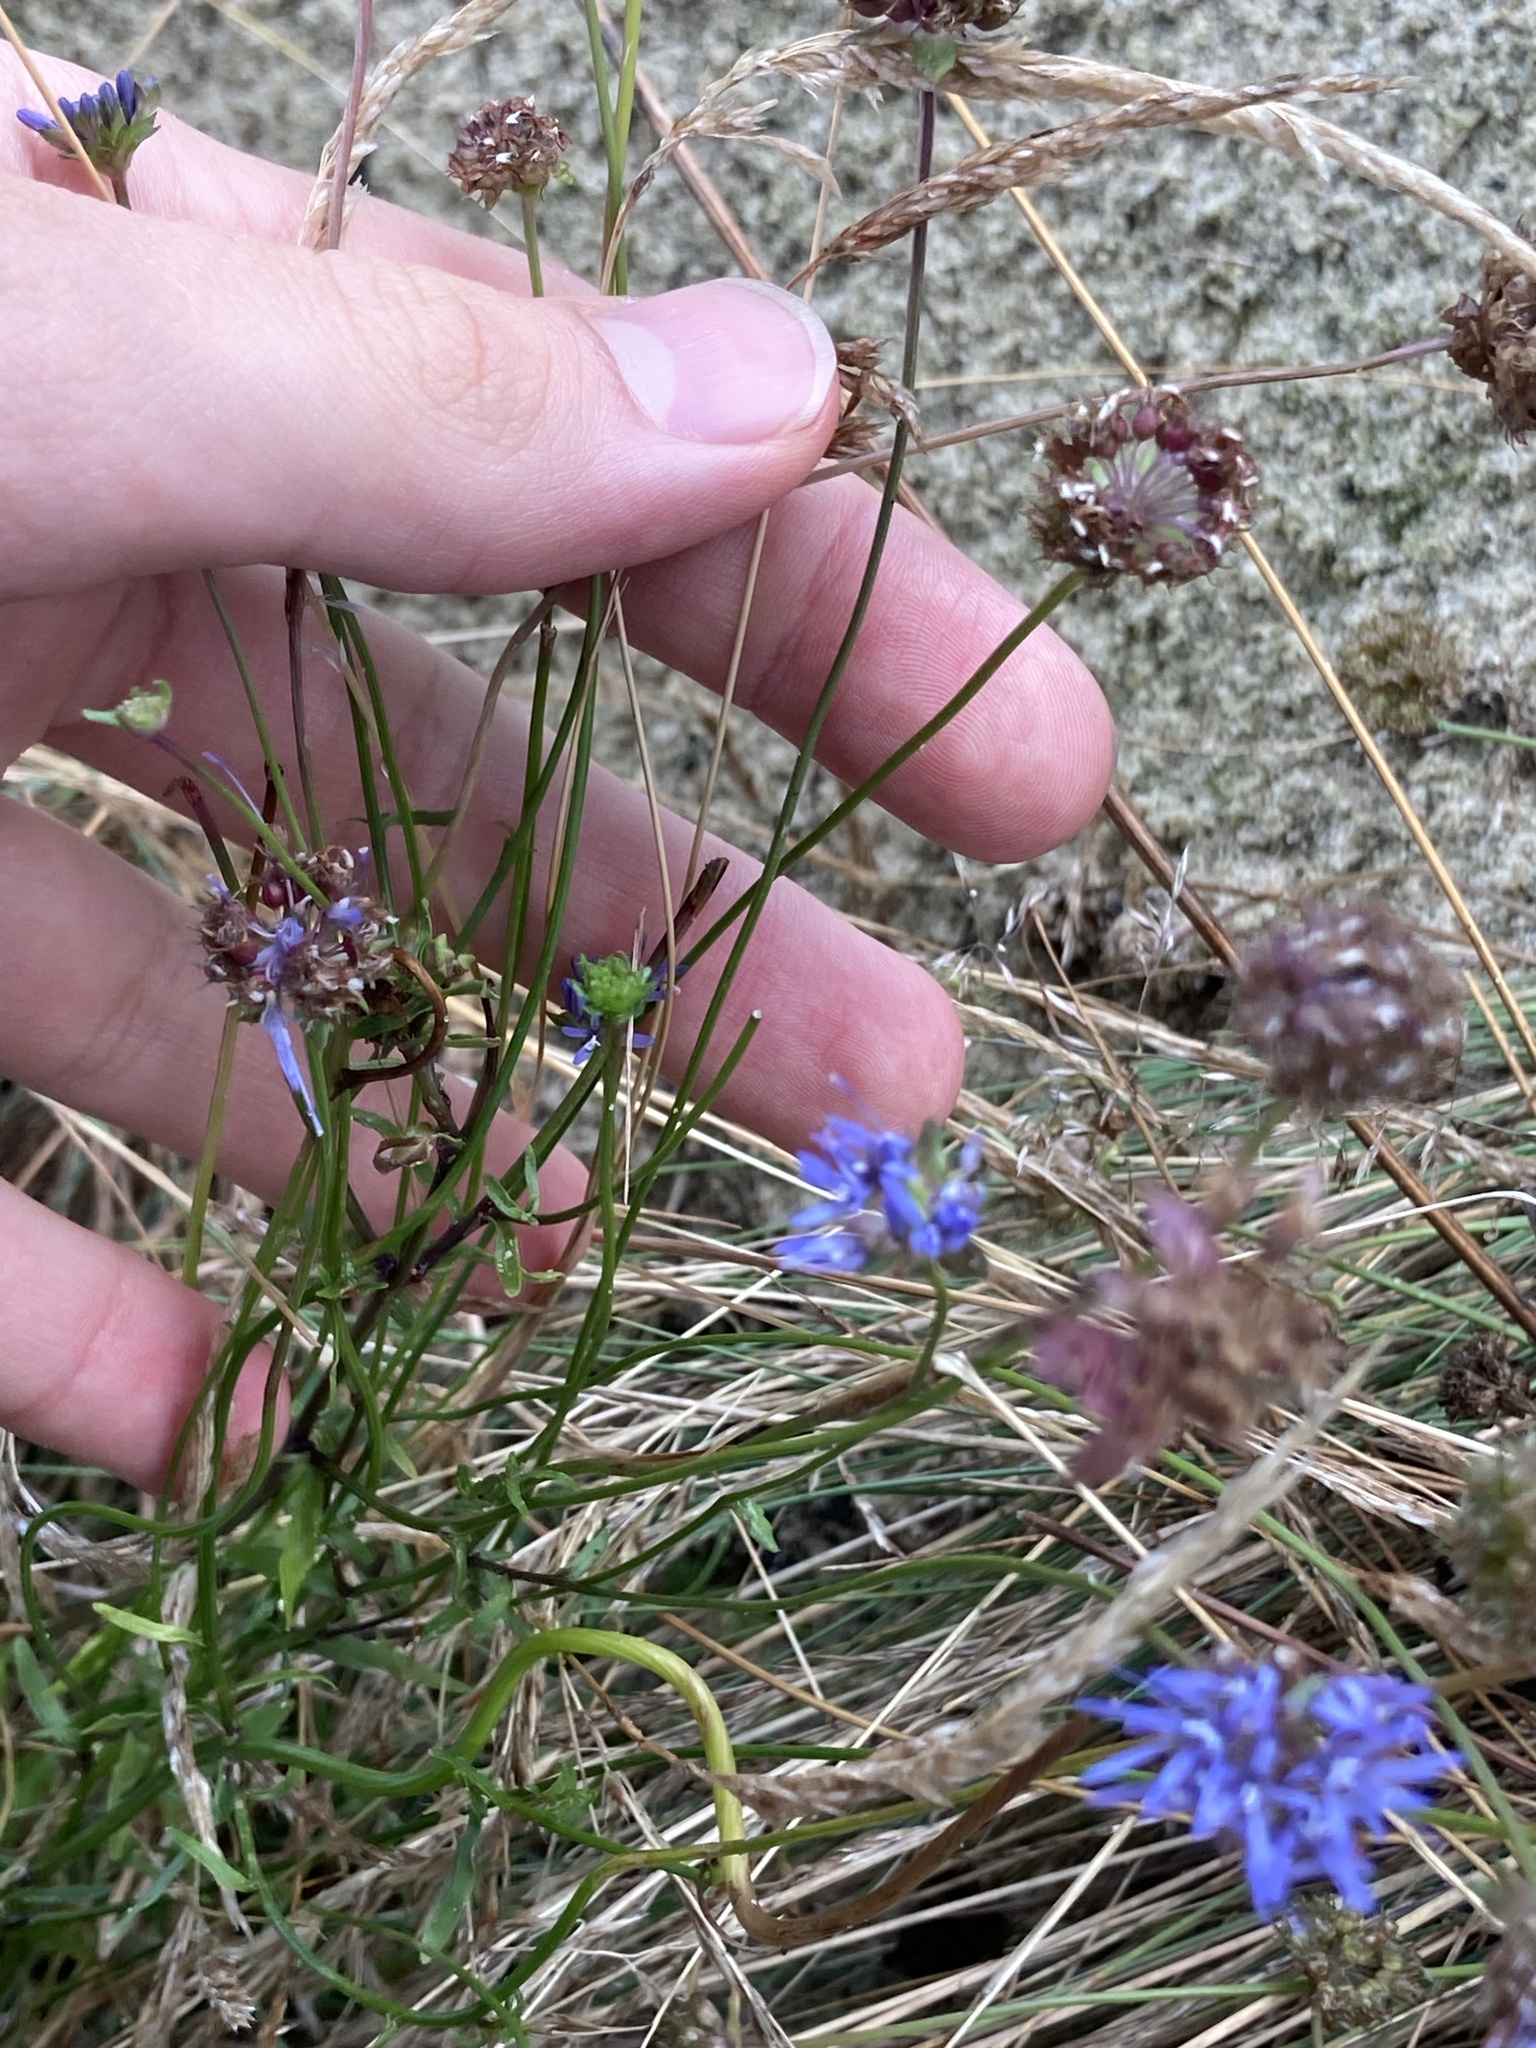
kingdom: Plantae
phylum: Tracheophyta
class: Magnoliopsida
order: Asterales
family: Campanulaceae
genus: Jasione
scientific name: Jasione montana
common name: Sheep's-bit
